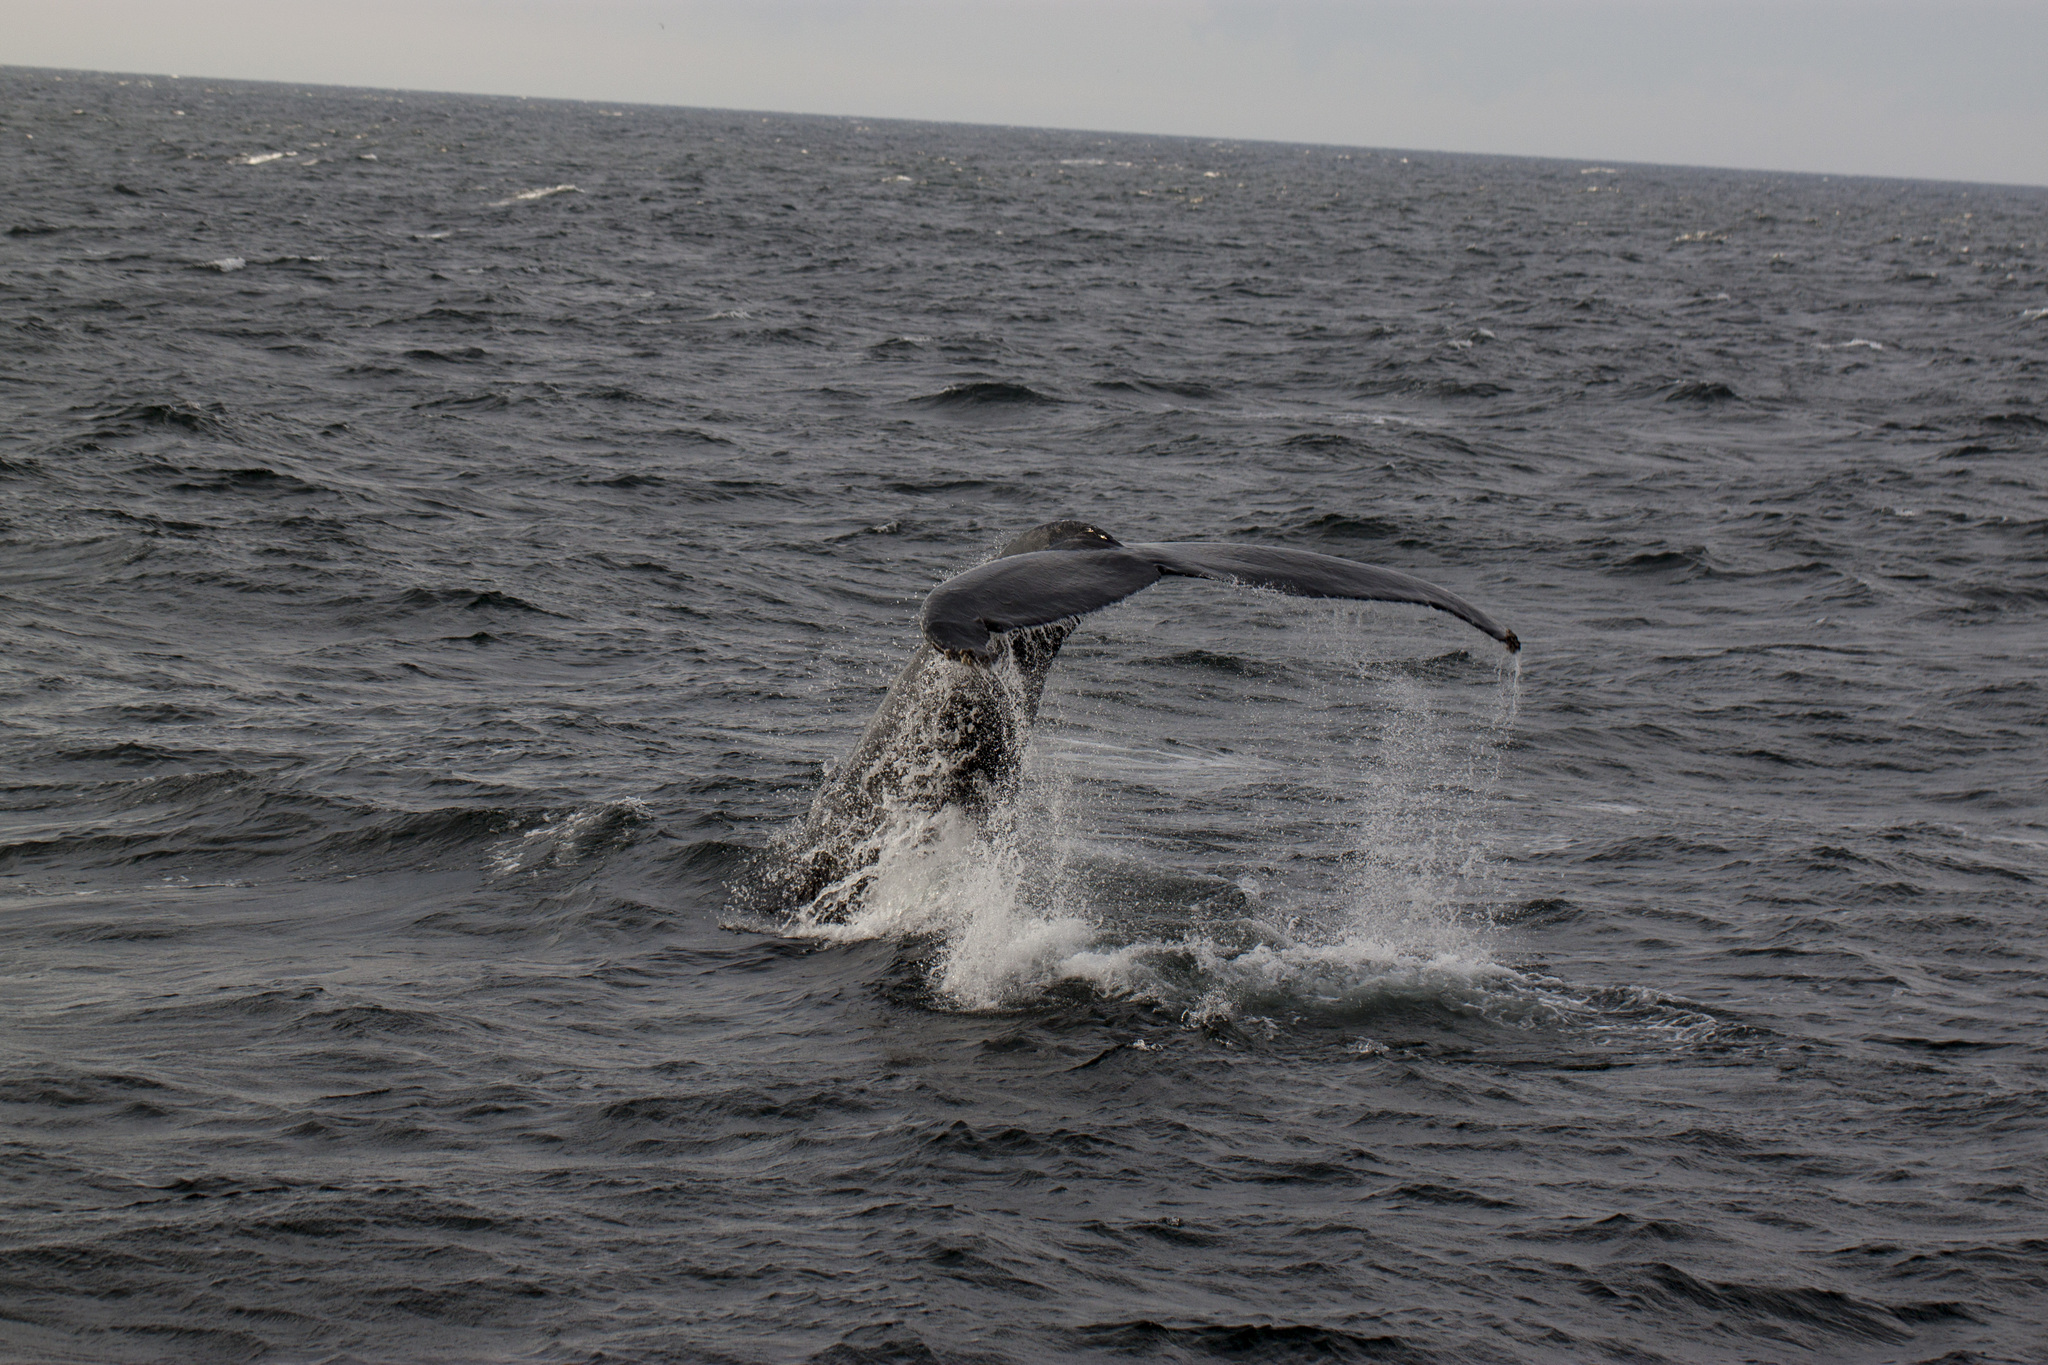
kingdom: Animalia
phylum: Chordata
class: Mammalia
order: Cetacea
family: Balaenopteridae
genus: Megaptera
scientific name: Megaptera novaeangliae
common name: Humpback whale
